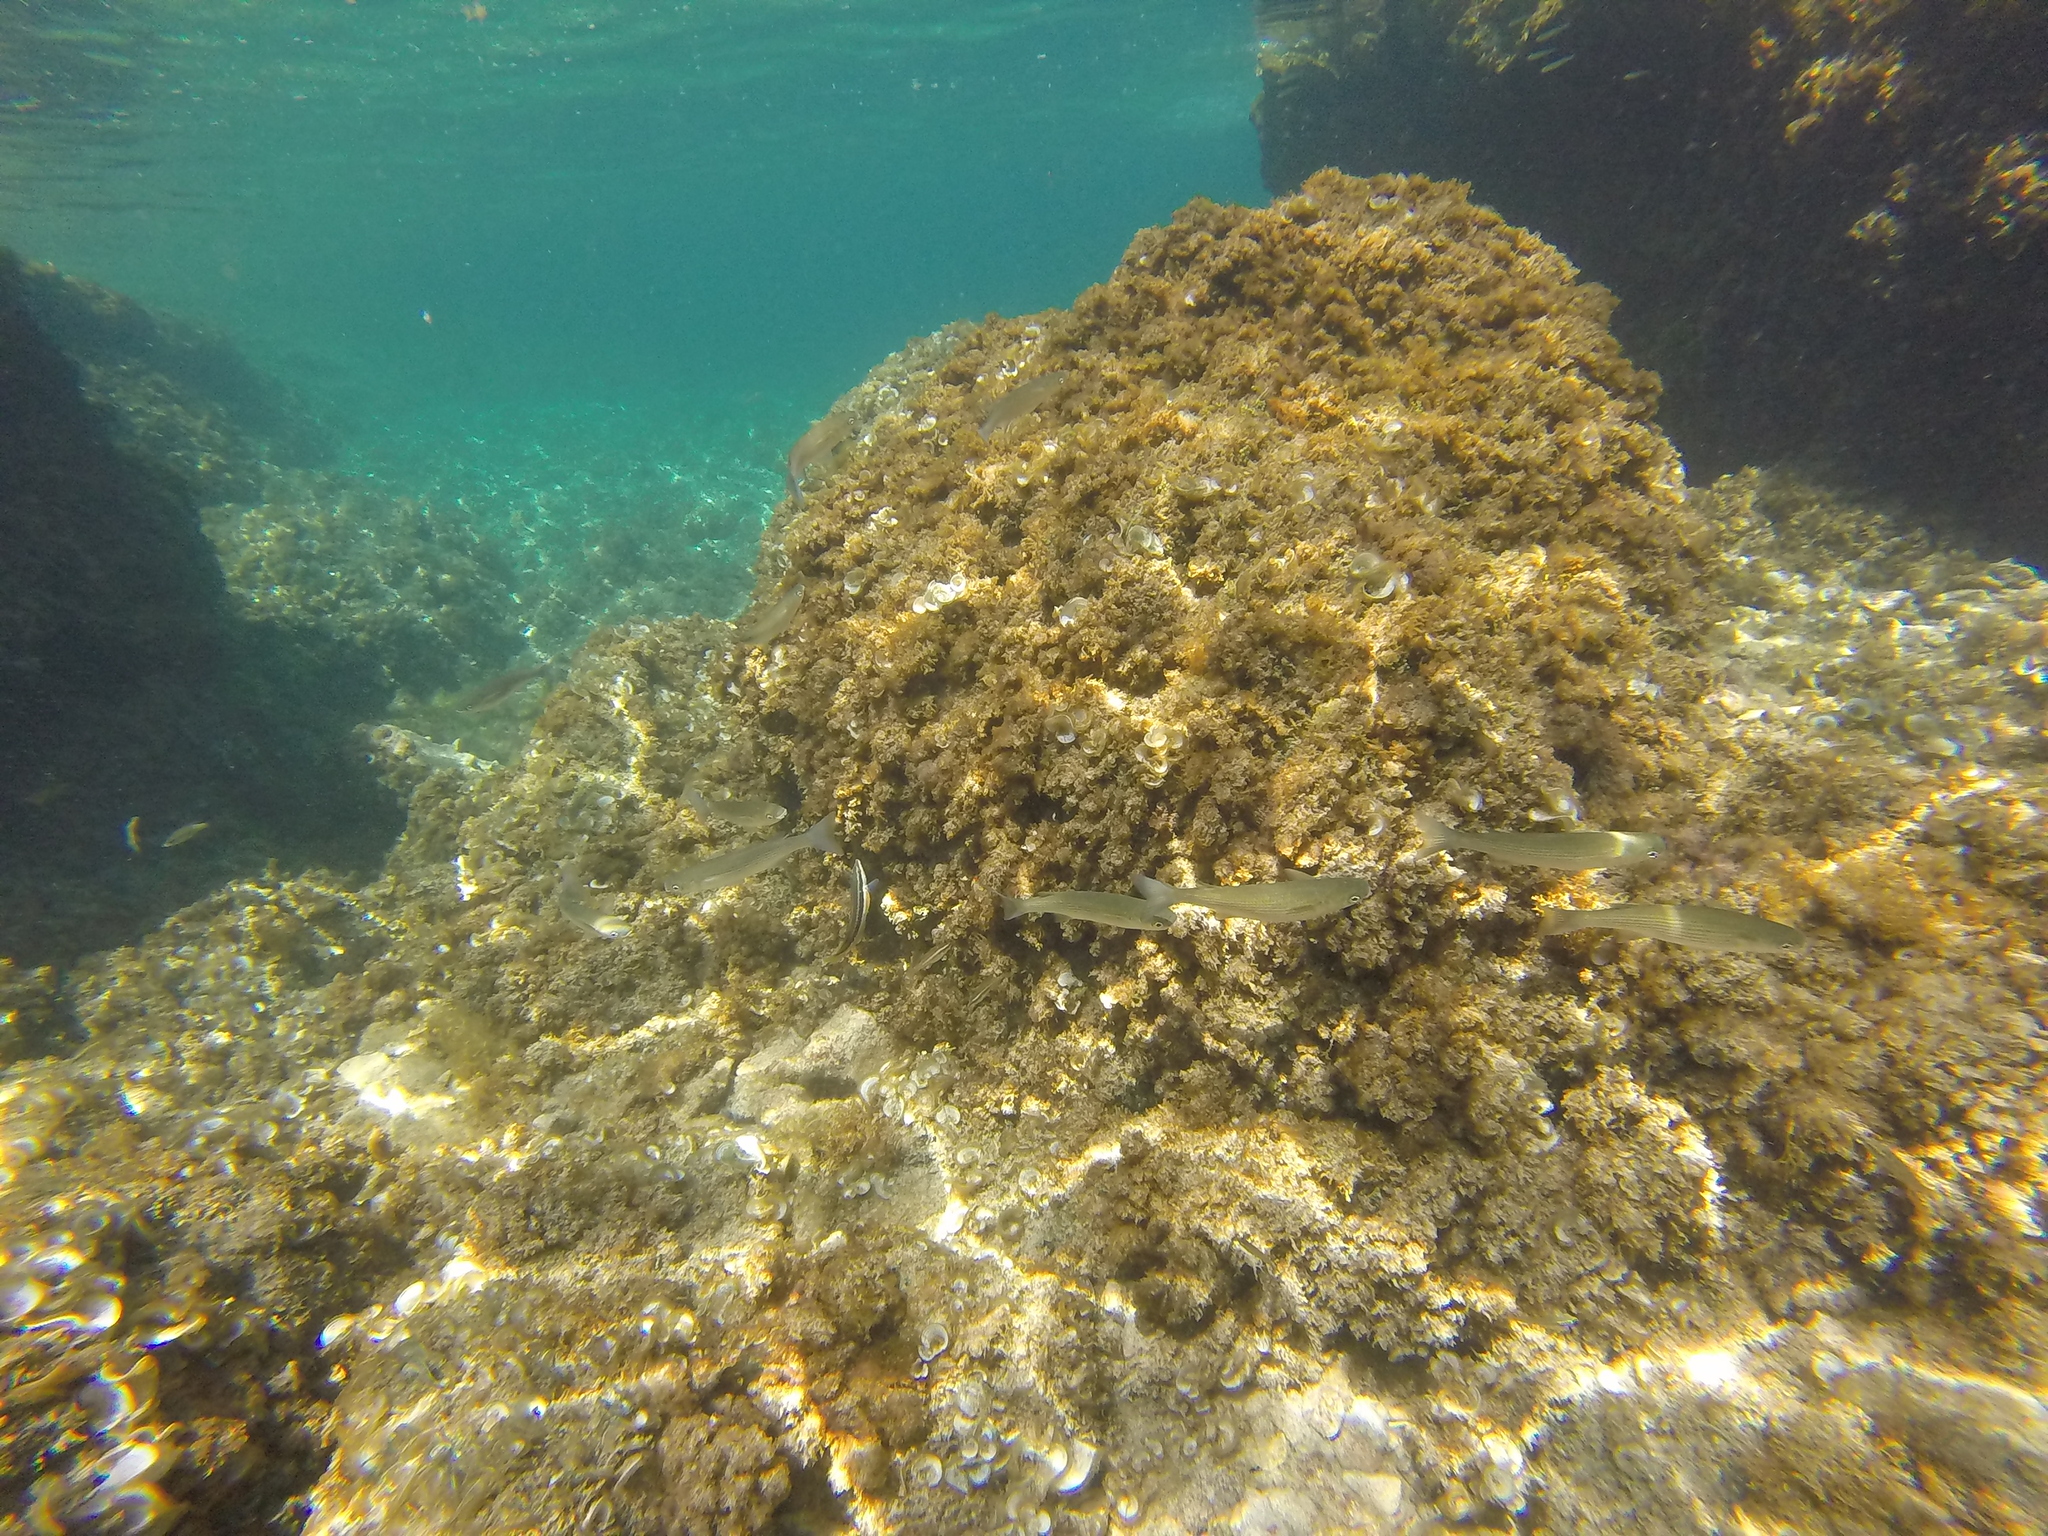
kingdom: Animalia
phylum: Chordata
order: Mugiliformes
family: Mugilidae
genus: Oedalechilus
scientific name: Oedalechilus labeo
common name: Boxlip mullet
